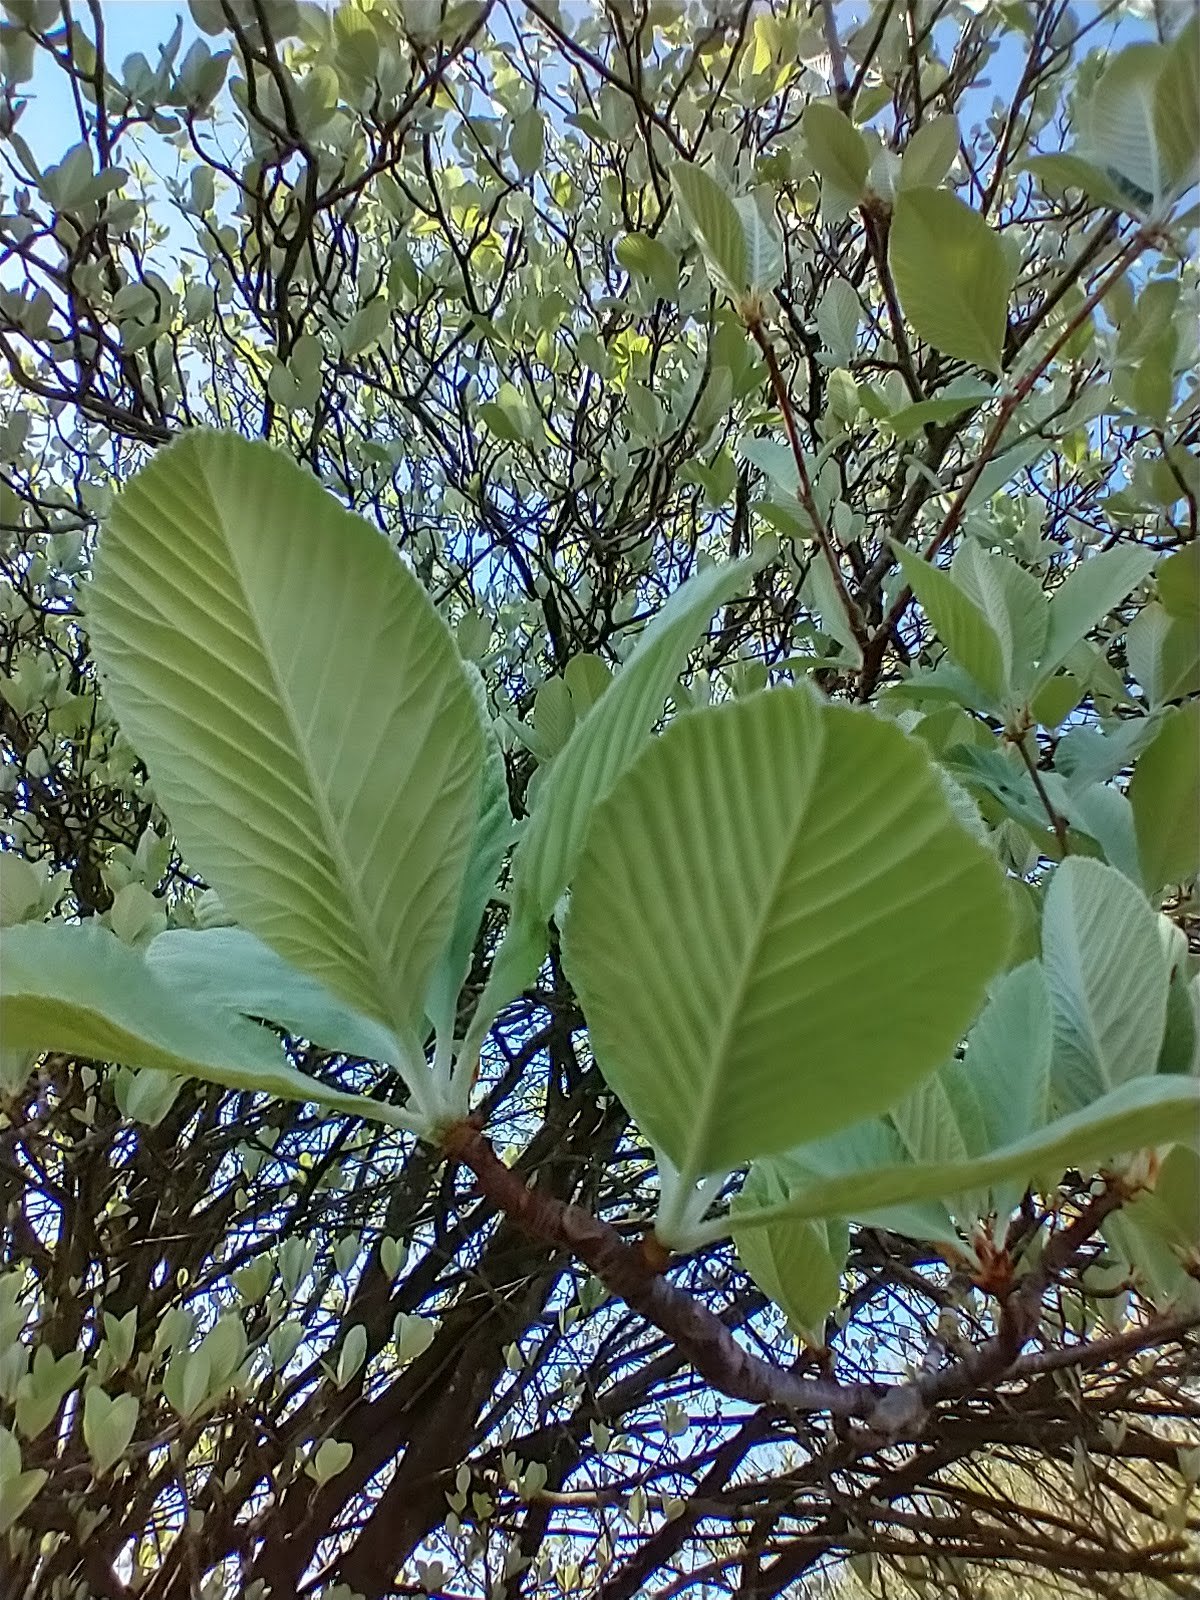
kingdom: Plantae
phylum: Tracheophyta
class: Magnoliopsida
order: Rosales
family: Rosaceae
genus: Aria
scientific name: Aria edulis
